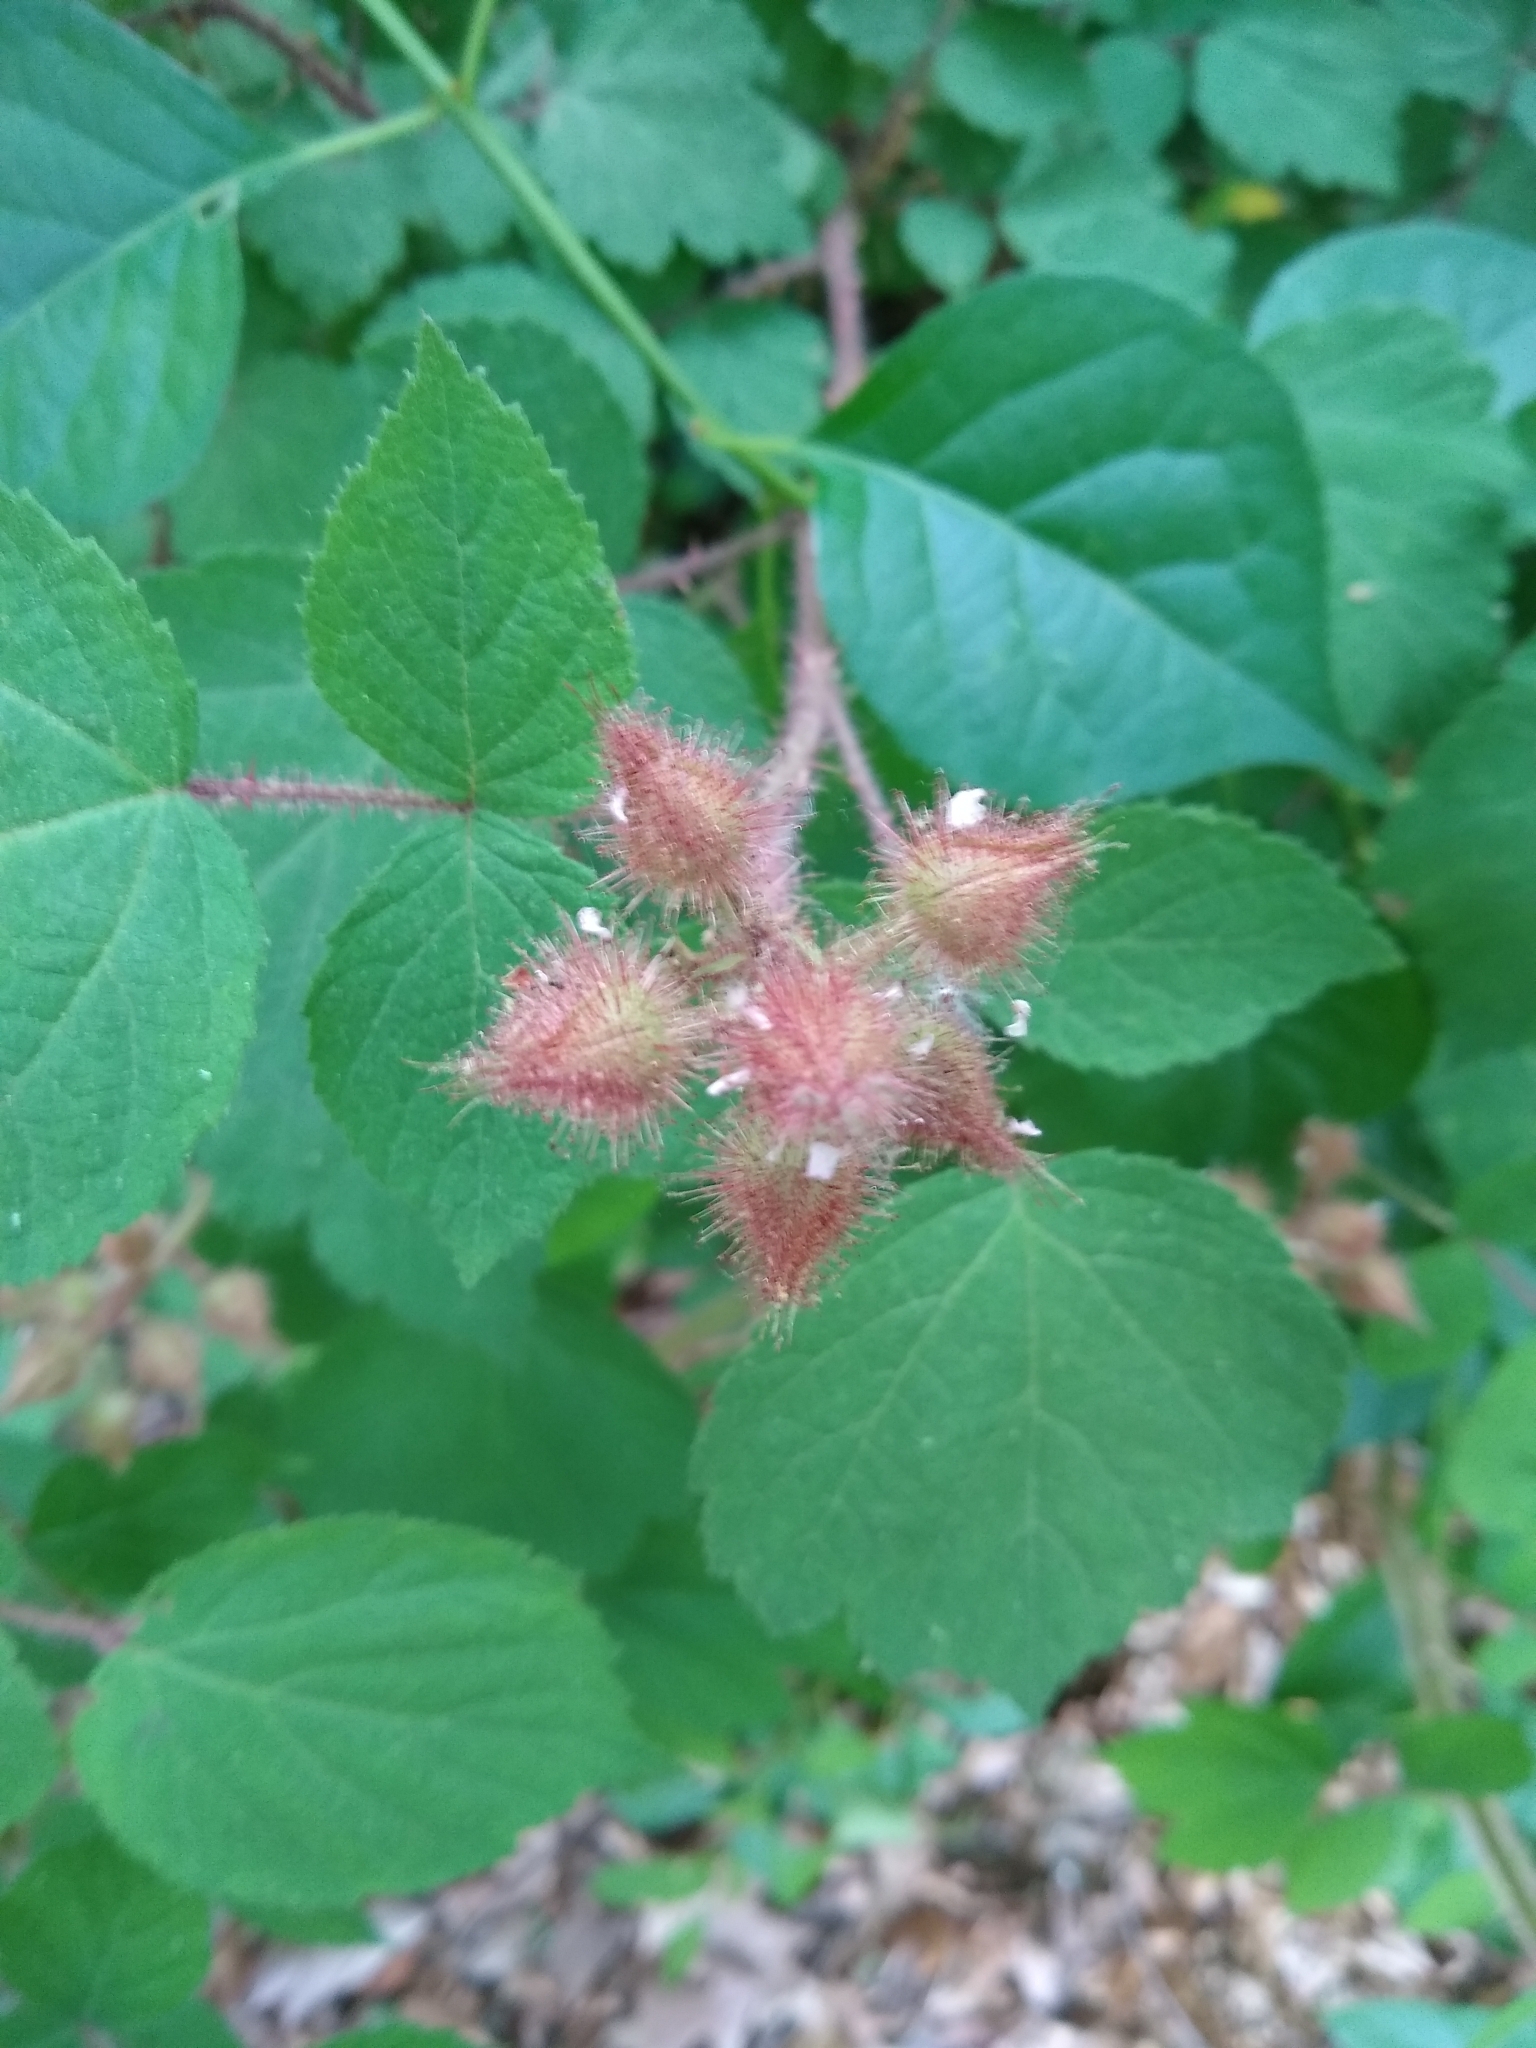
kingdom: Plantae
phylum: Tracheophyta
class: Magnoliopsida
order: Rosales
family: Rosaceae
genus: Rubus
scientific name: Rubus phoenicolasius
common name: Japanese wineberry
